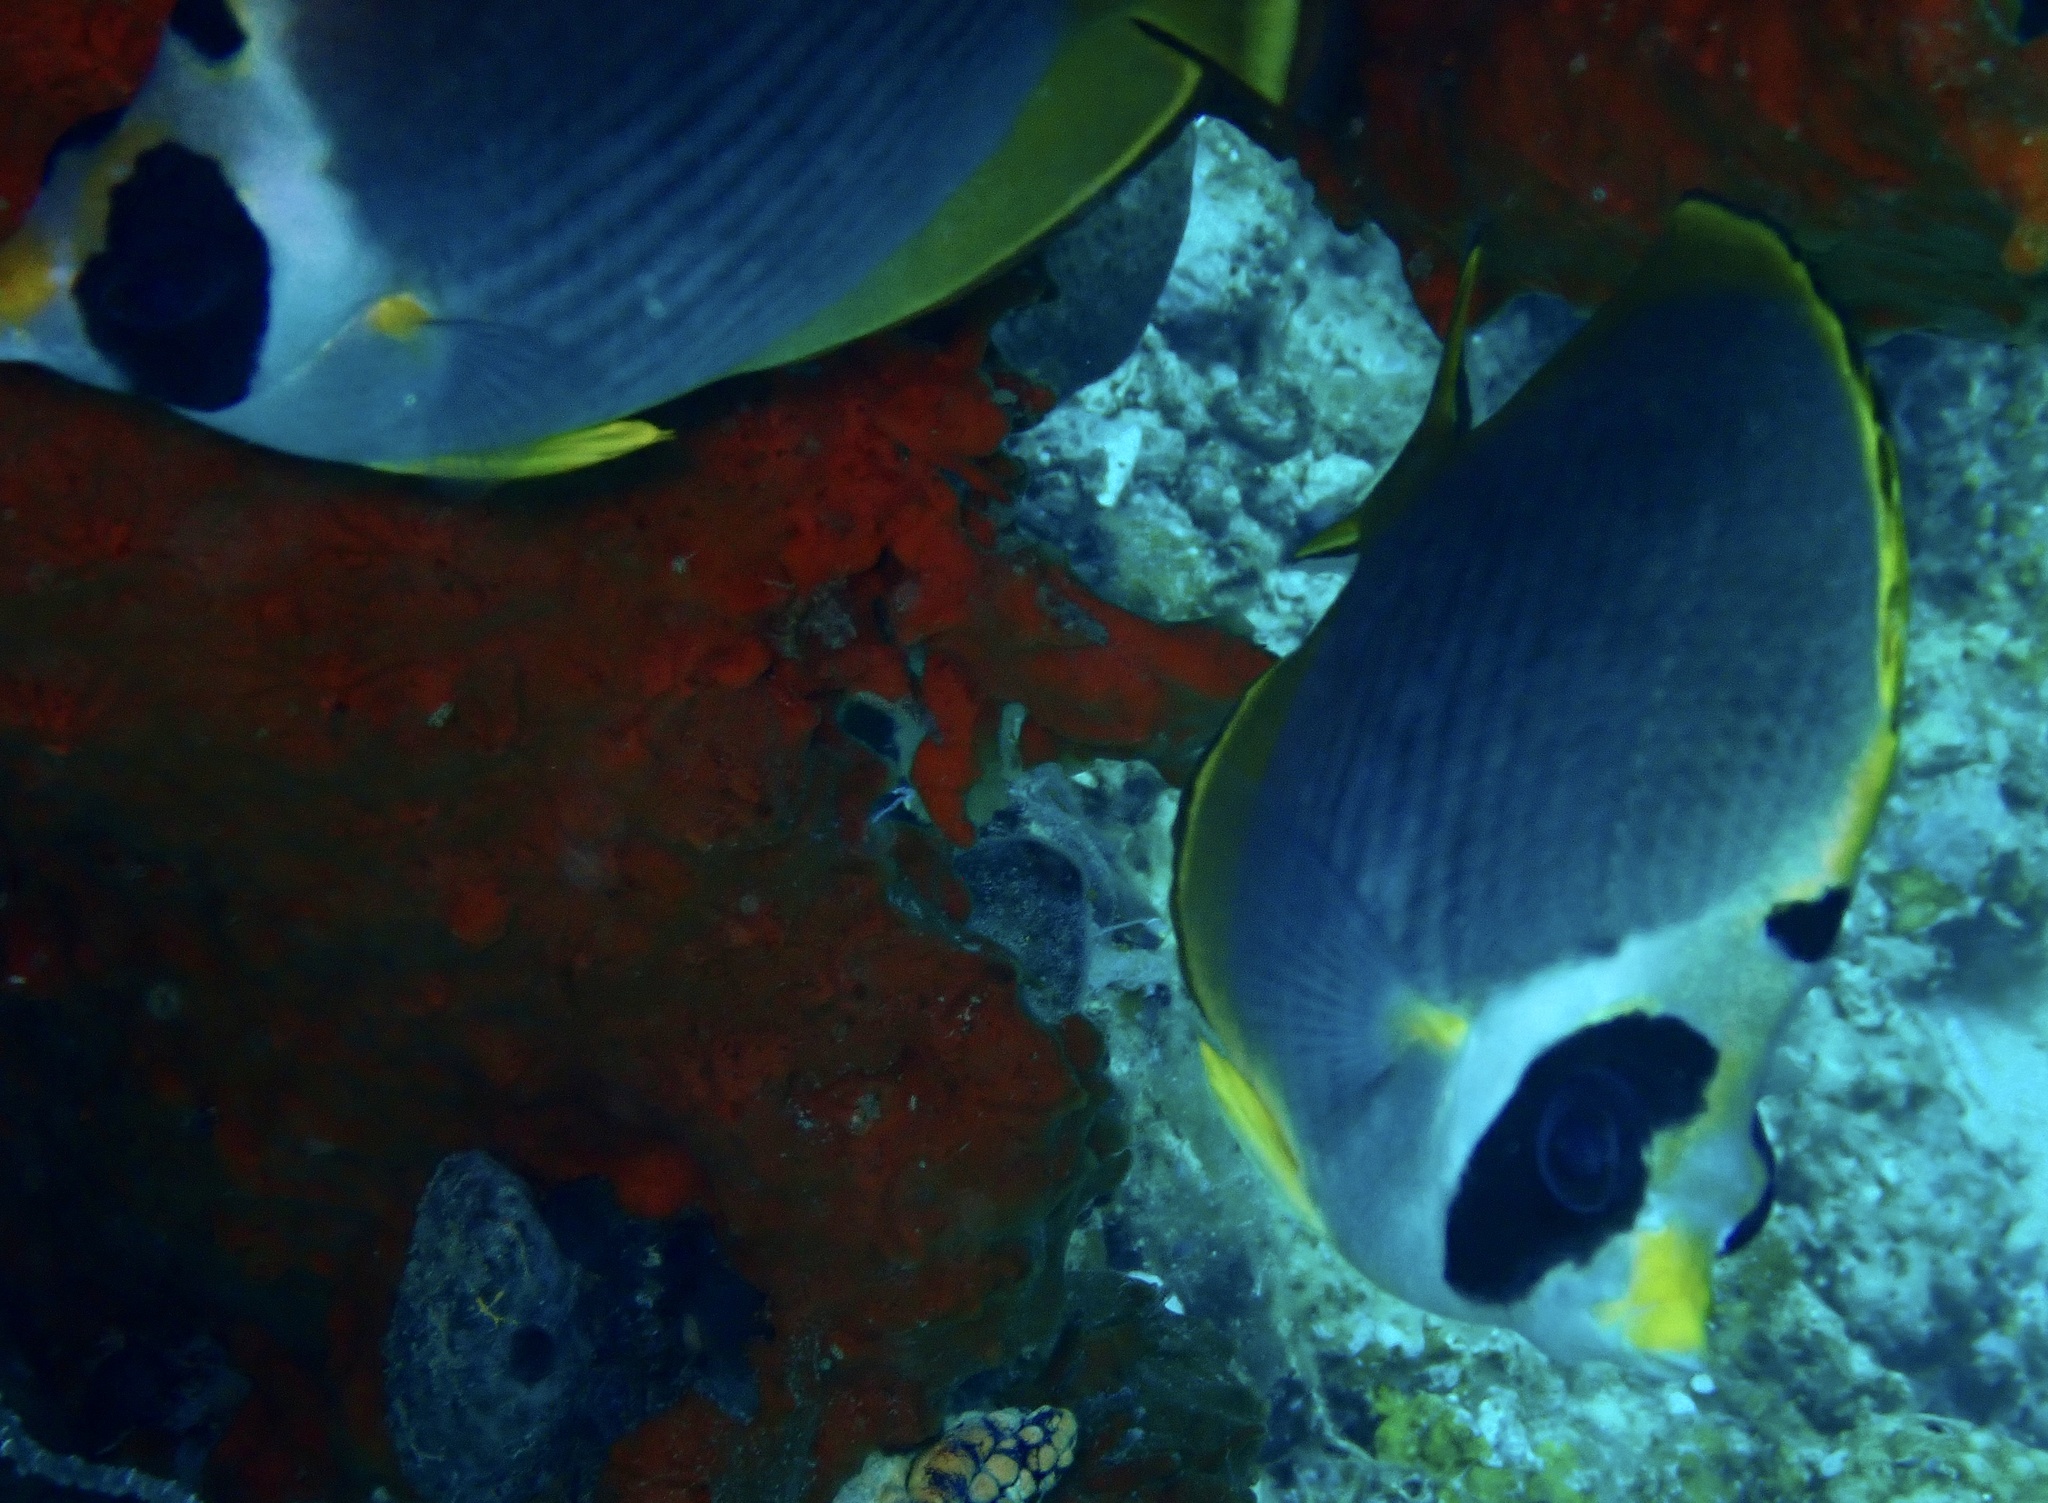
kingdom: Animalia
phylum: Chordata
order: Perciformes
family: Chaetodontidae
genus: Chaetodon
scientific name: Chaetodon adiergastos
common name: Eye-patch butterflyfish
